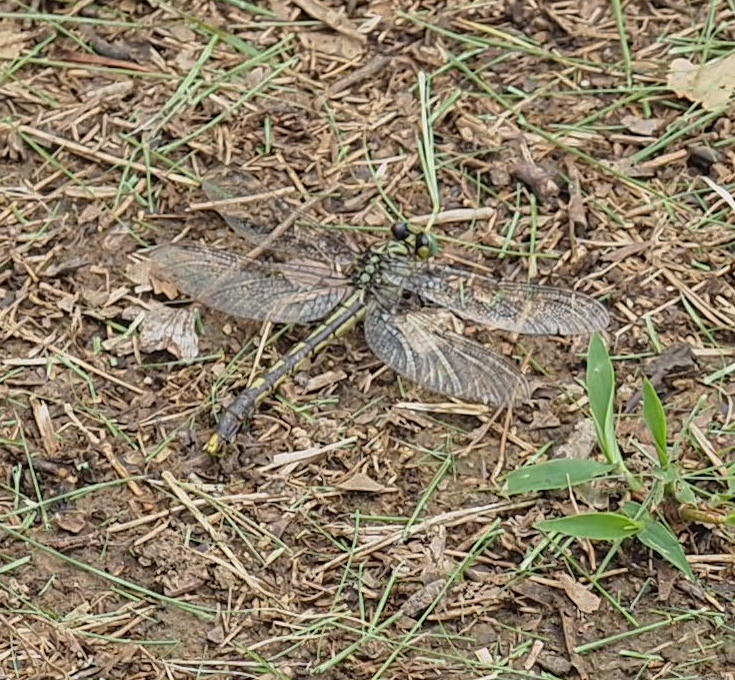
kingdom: Animalia
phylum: Arthropoda
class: Insecta
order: Odonata
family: Gomphidae
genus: Arigomphus
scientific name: Arigomphus villosipes
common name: Unicorn clubtail
